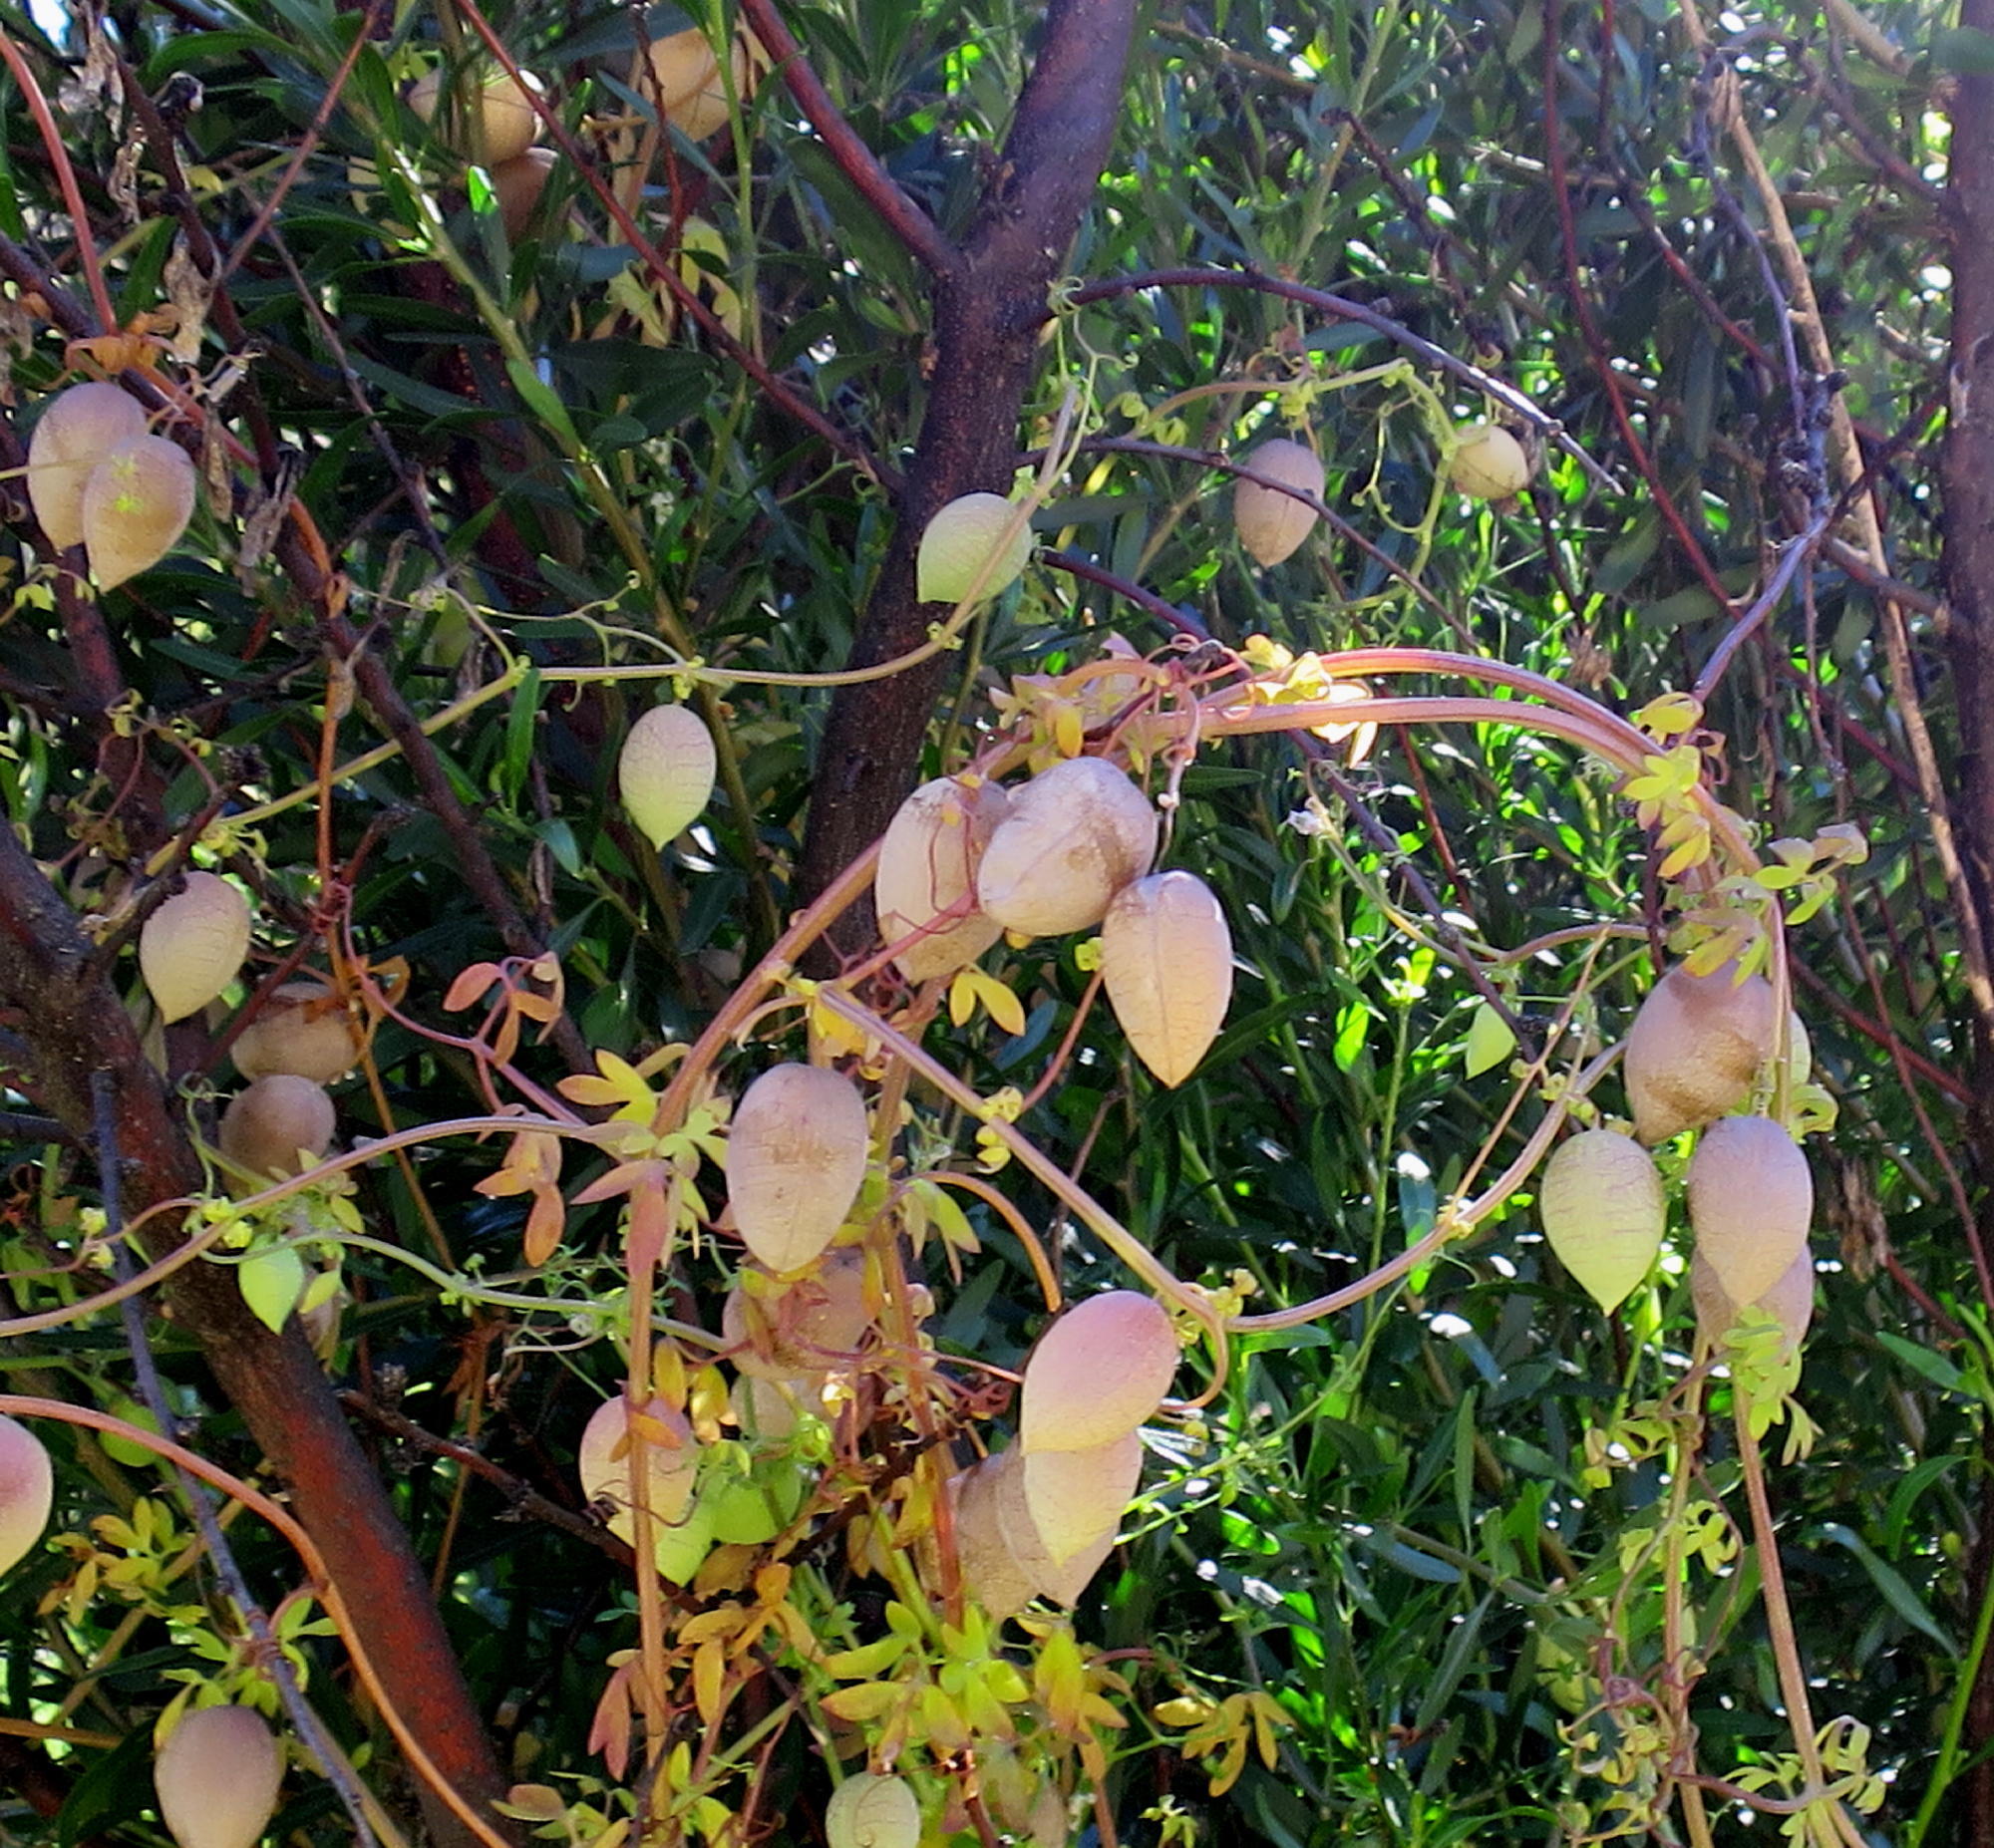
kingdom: Plantae
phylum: Tracheophyta
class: Magnoliopsida
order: Ranunculales
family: Papaveraceae
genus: Cysticapnos
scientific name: Cysticapnos vesicaria
